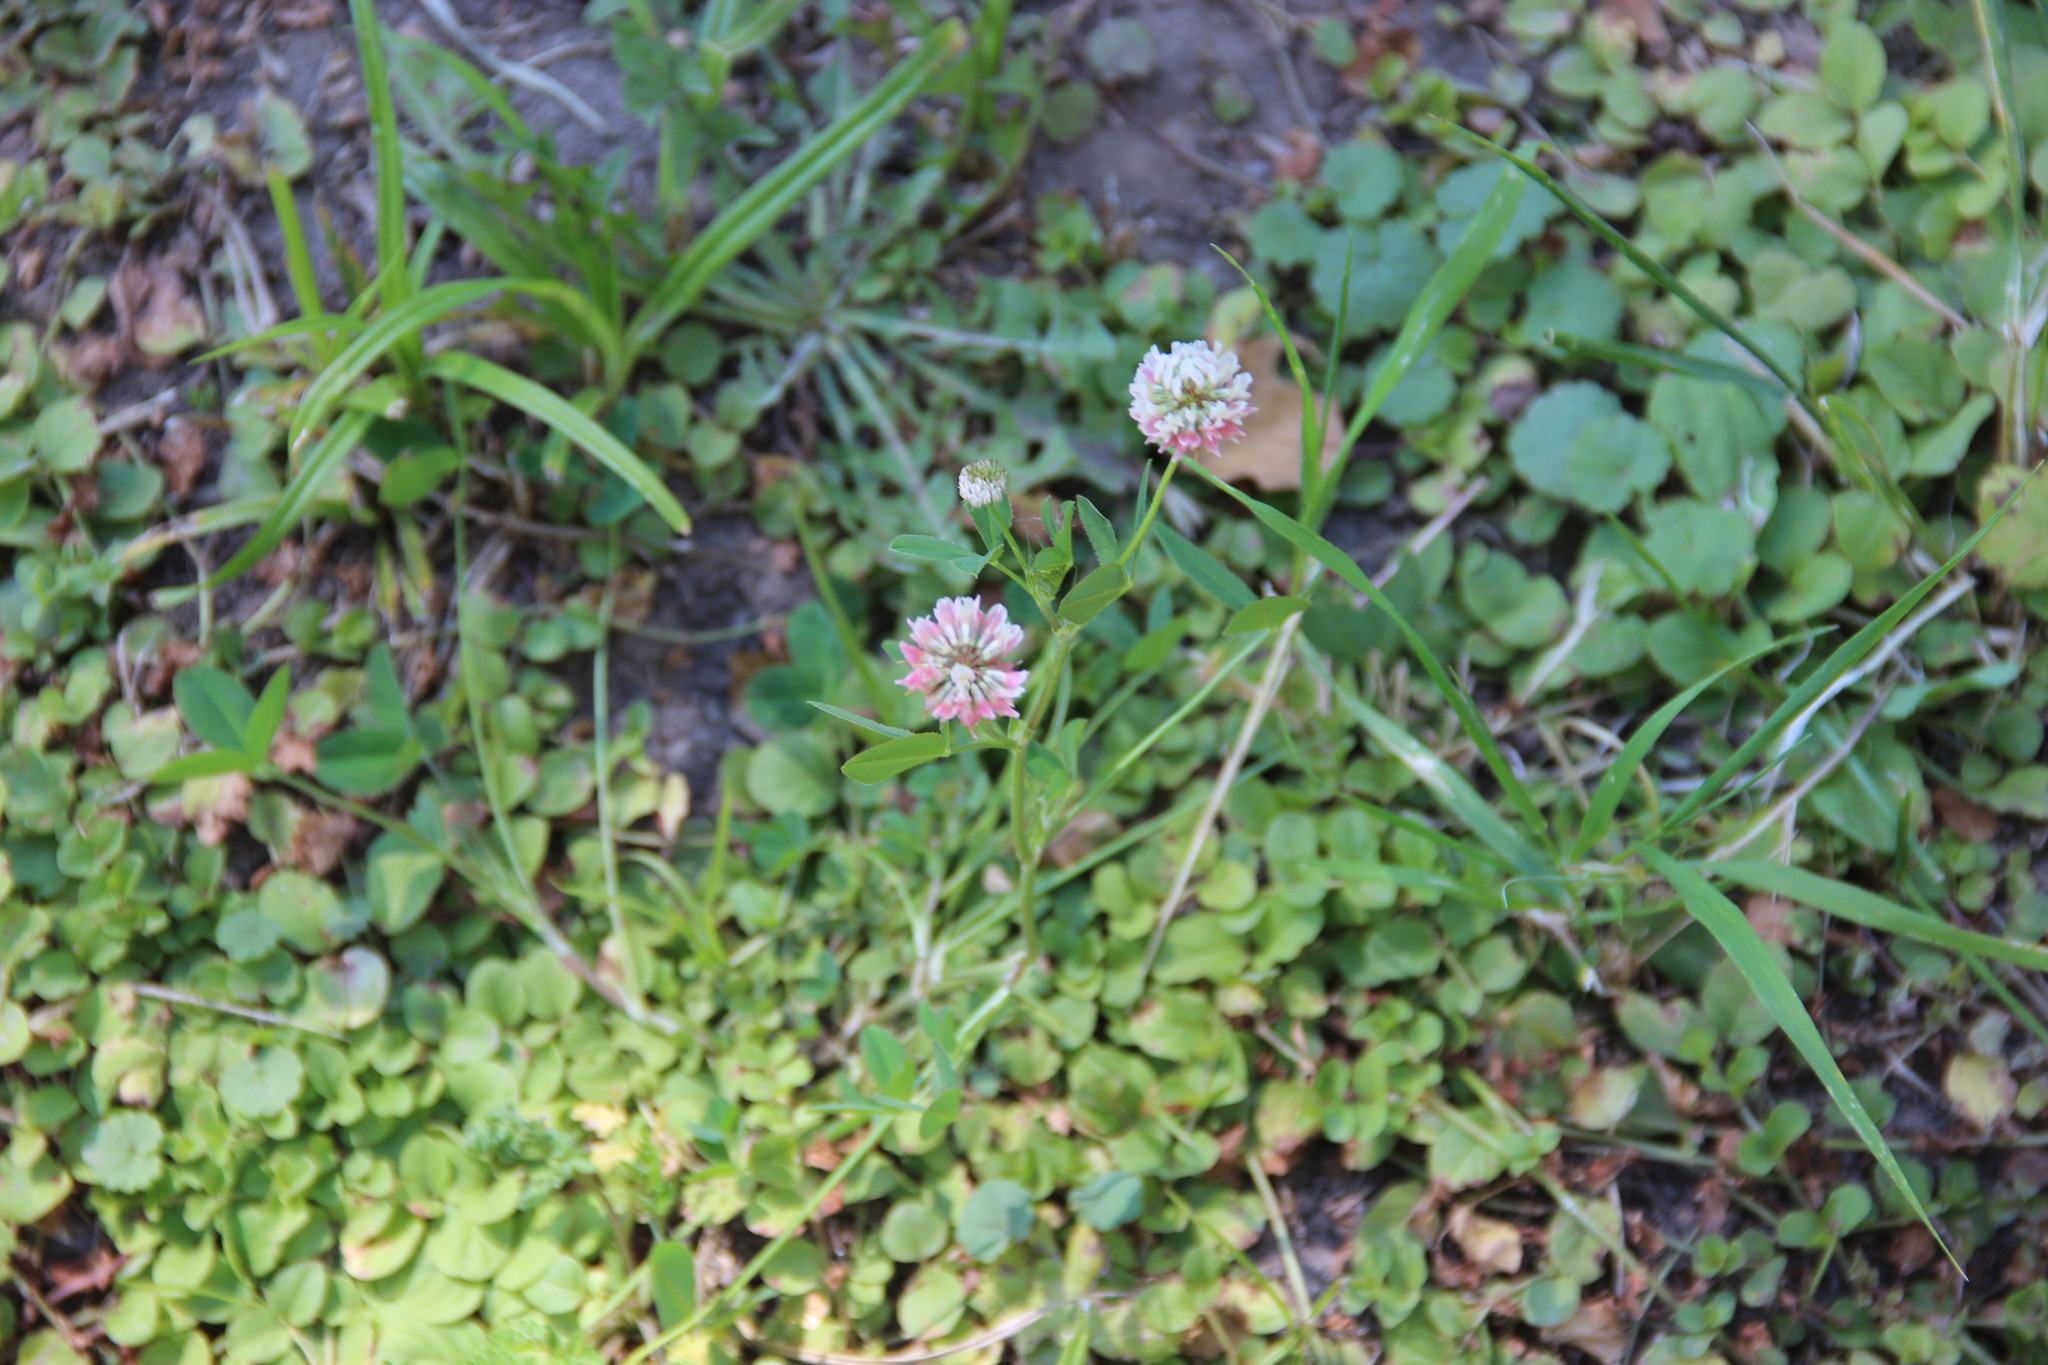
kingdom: Plantae
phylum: Tracheophyta
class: Magnoliopsida
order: Fabales
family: Fabaceae
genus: Trifolium
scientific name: Trifolium hybridum
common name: Alsike clover
